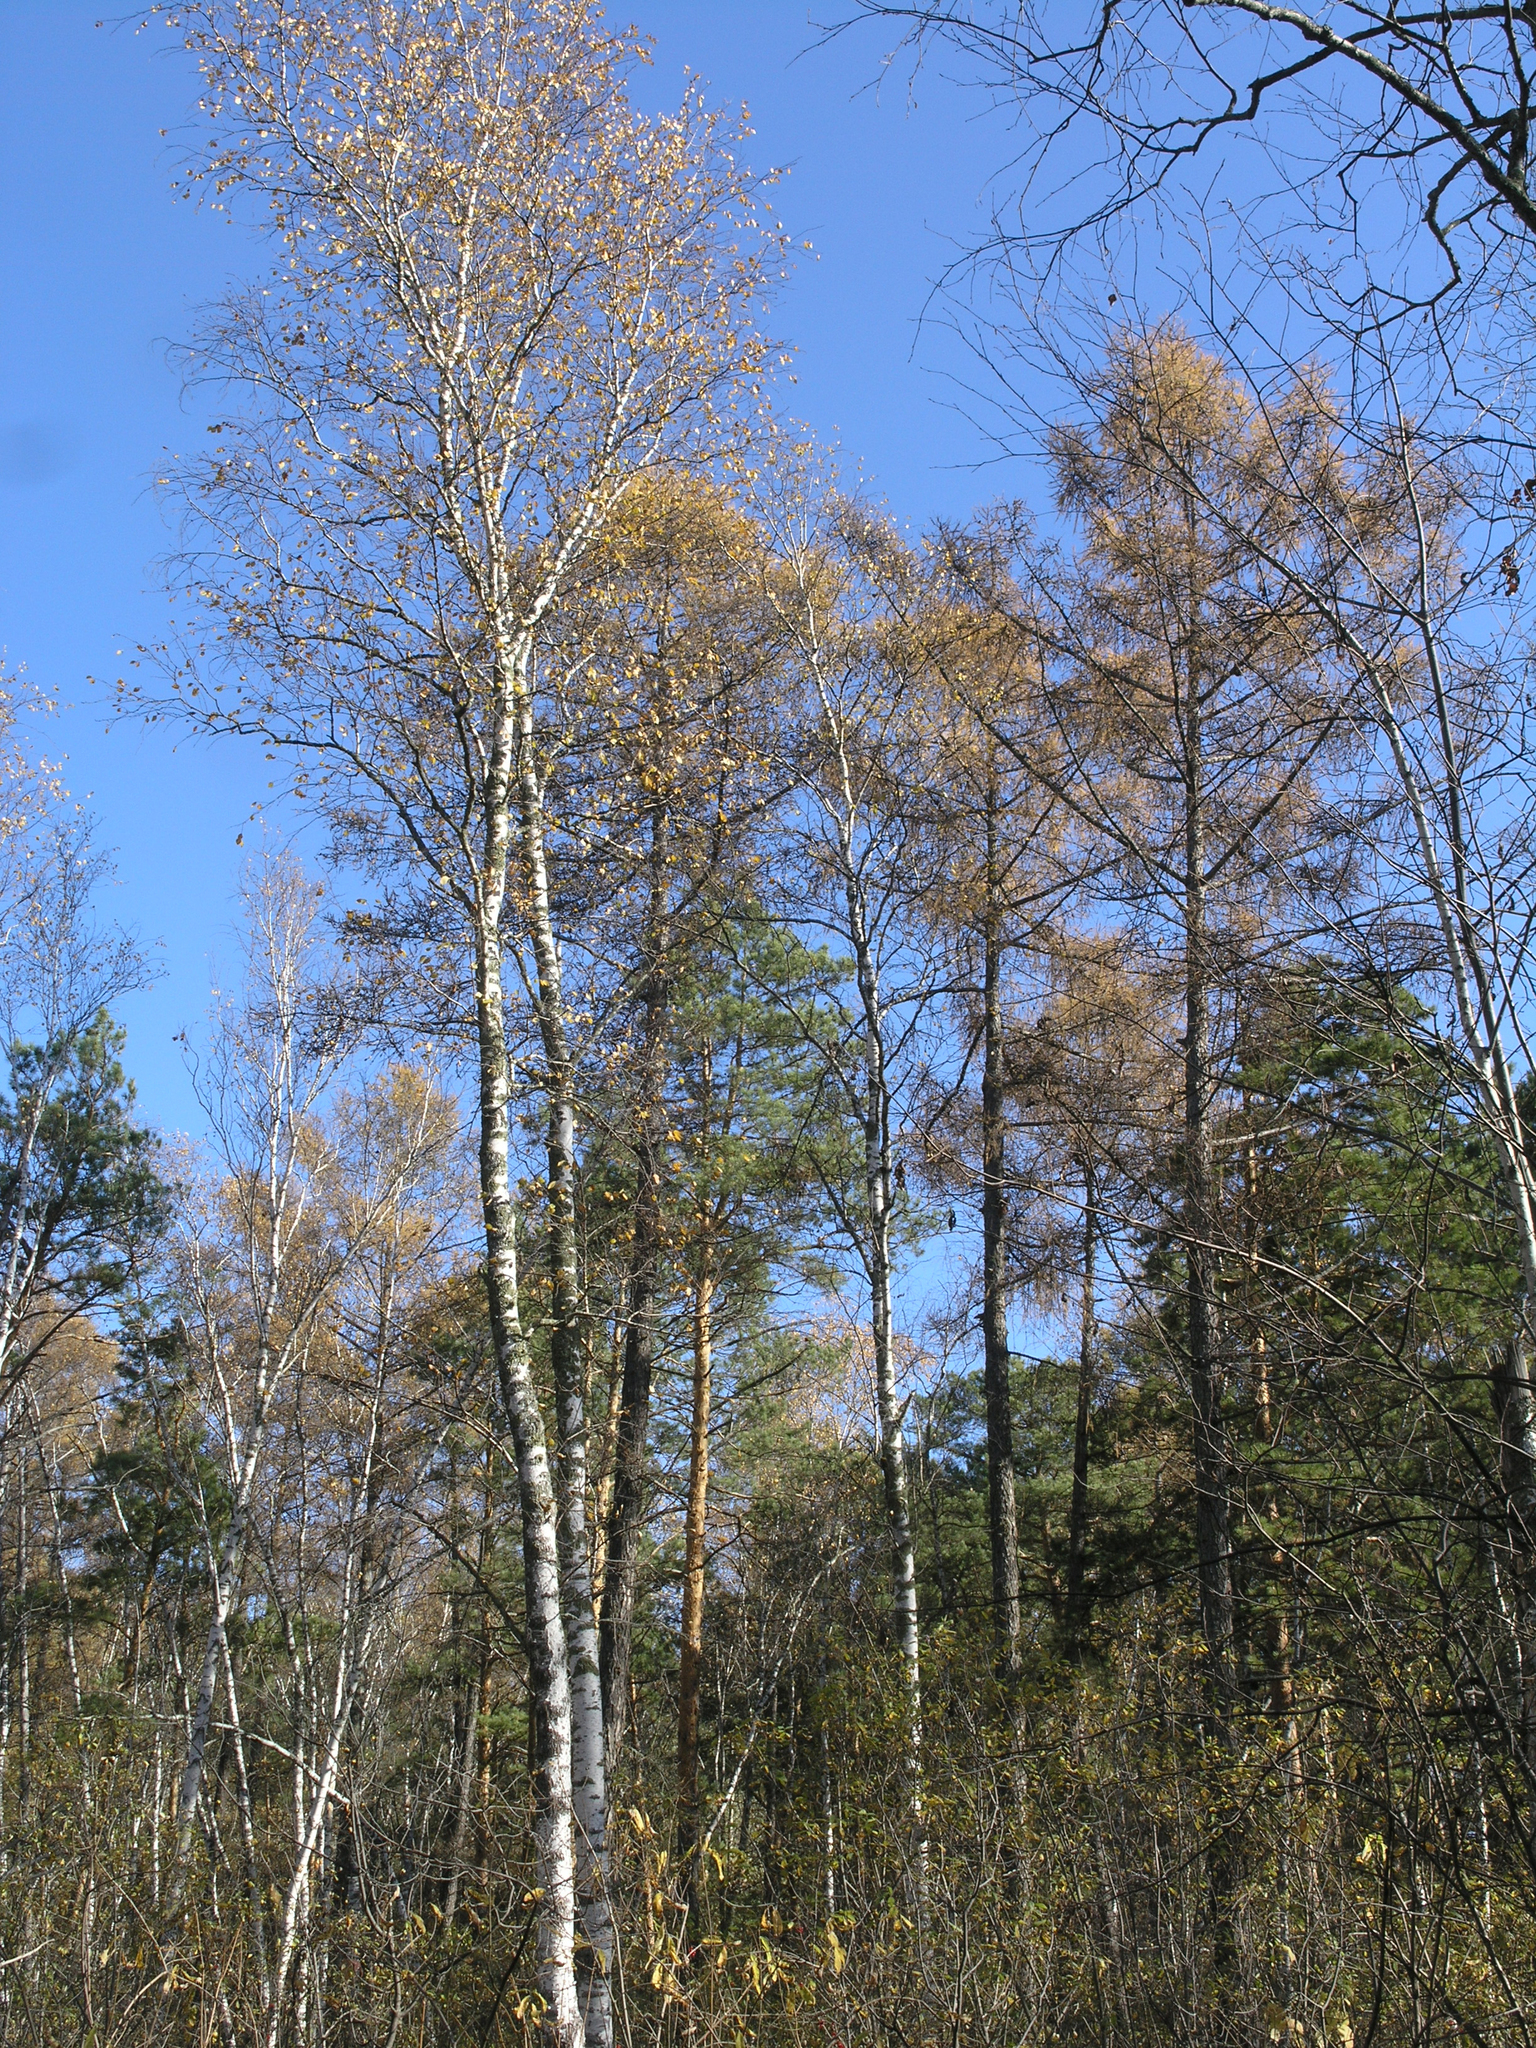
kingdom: Plantae
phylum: Tracheophyta
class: Pinopsida
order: Pinales
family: Pinaceae
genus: Larix
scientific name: Larix sibirica
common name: Siberian larch
